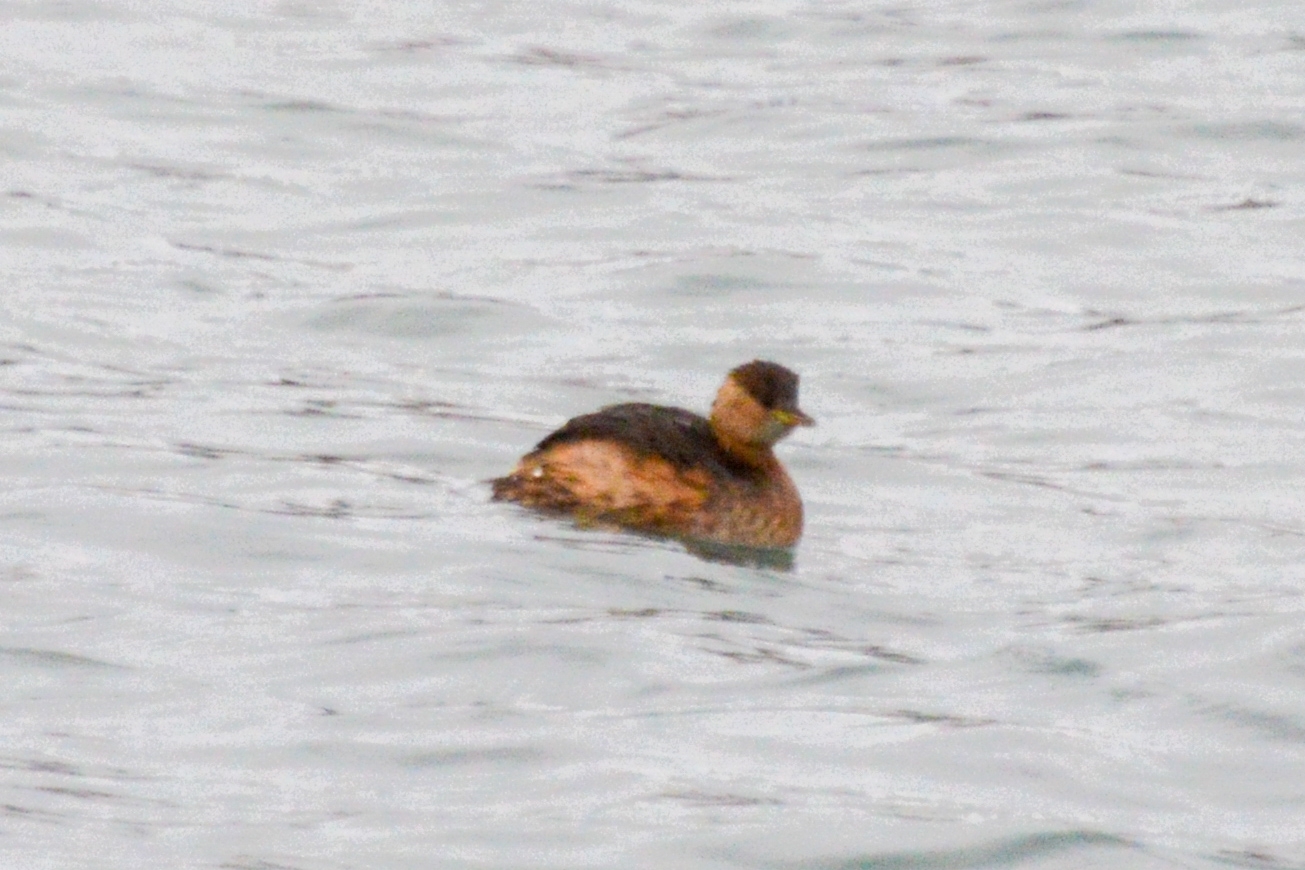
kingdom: Animalia
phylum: Chordata
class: Aves
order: Podicipediformes
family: Podicipedidae
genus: Tachybaptus
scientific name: Tachybaptus ruficollis
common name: Little grebe
